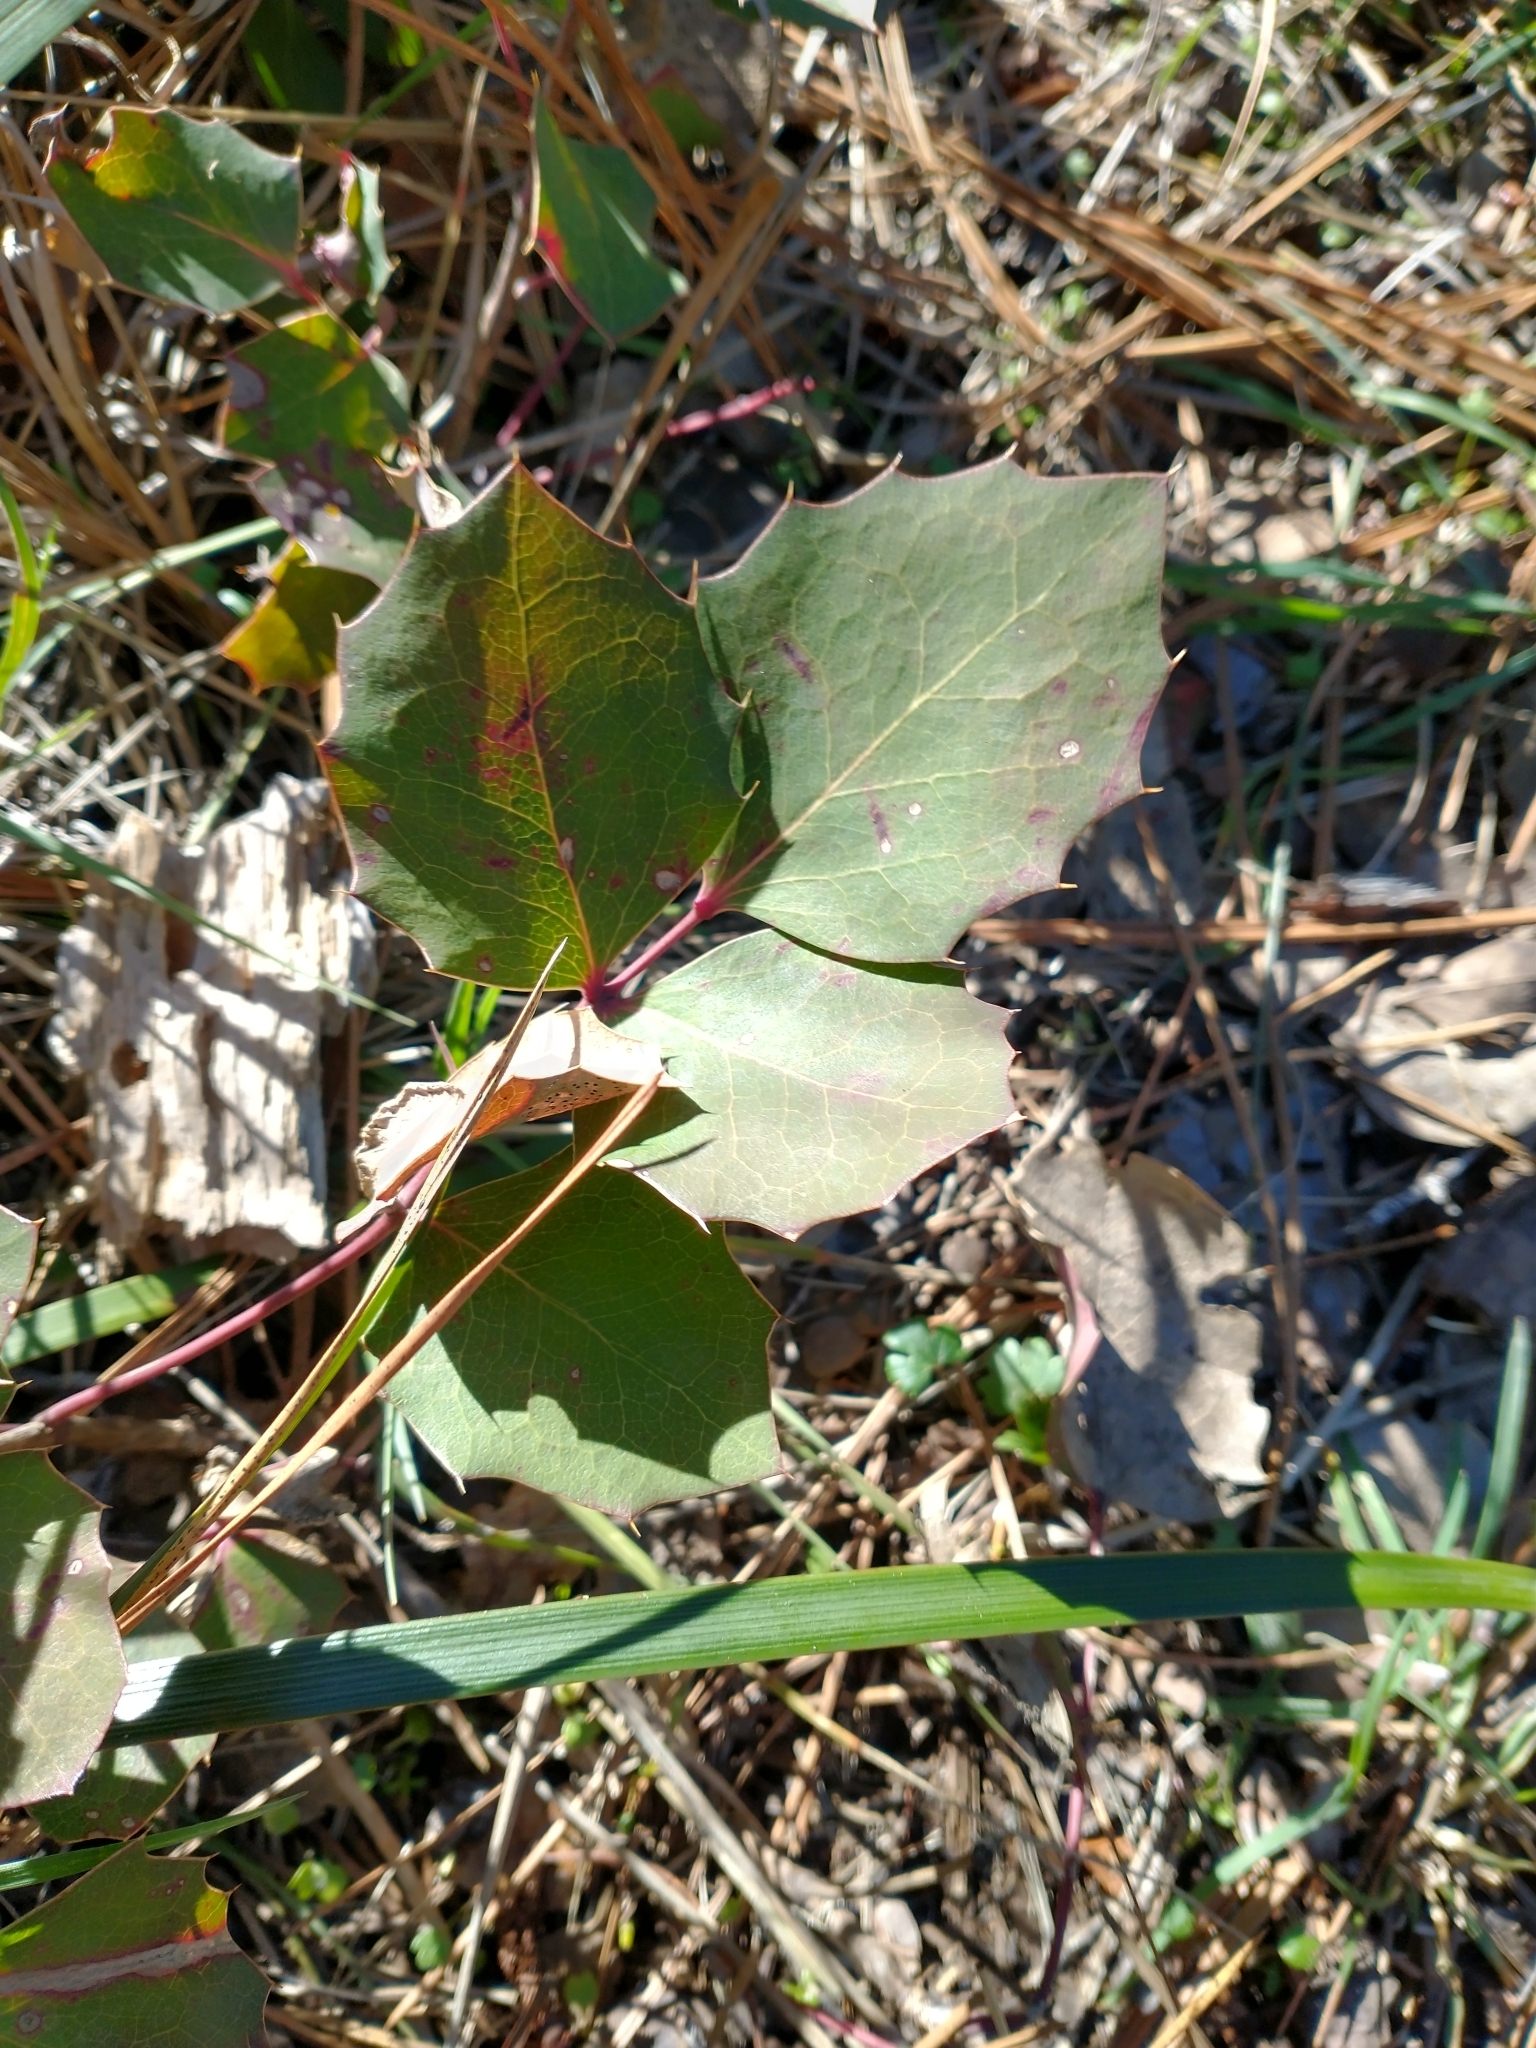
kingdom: Plantae
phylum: Tracheophyta
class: Magnoliopsida
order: Ranunculales
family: Berberidaceae
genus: Mahonia
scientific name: Mahonia repens
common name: Creeping oregon-grape
